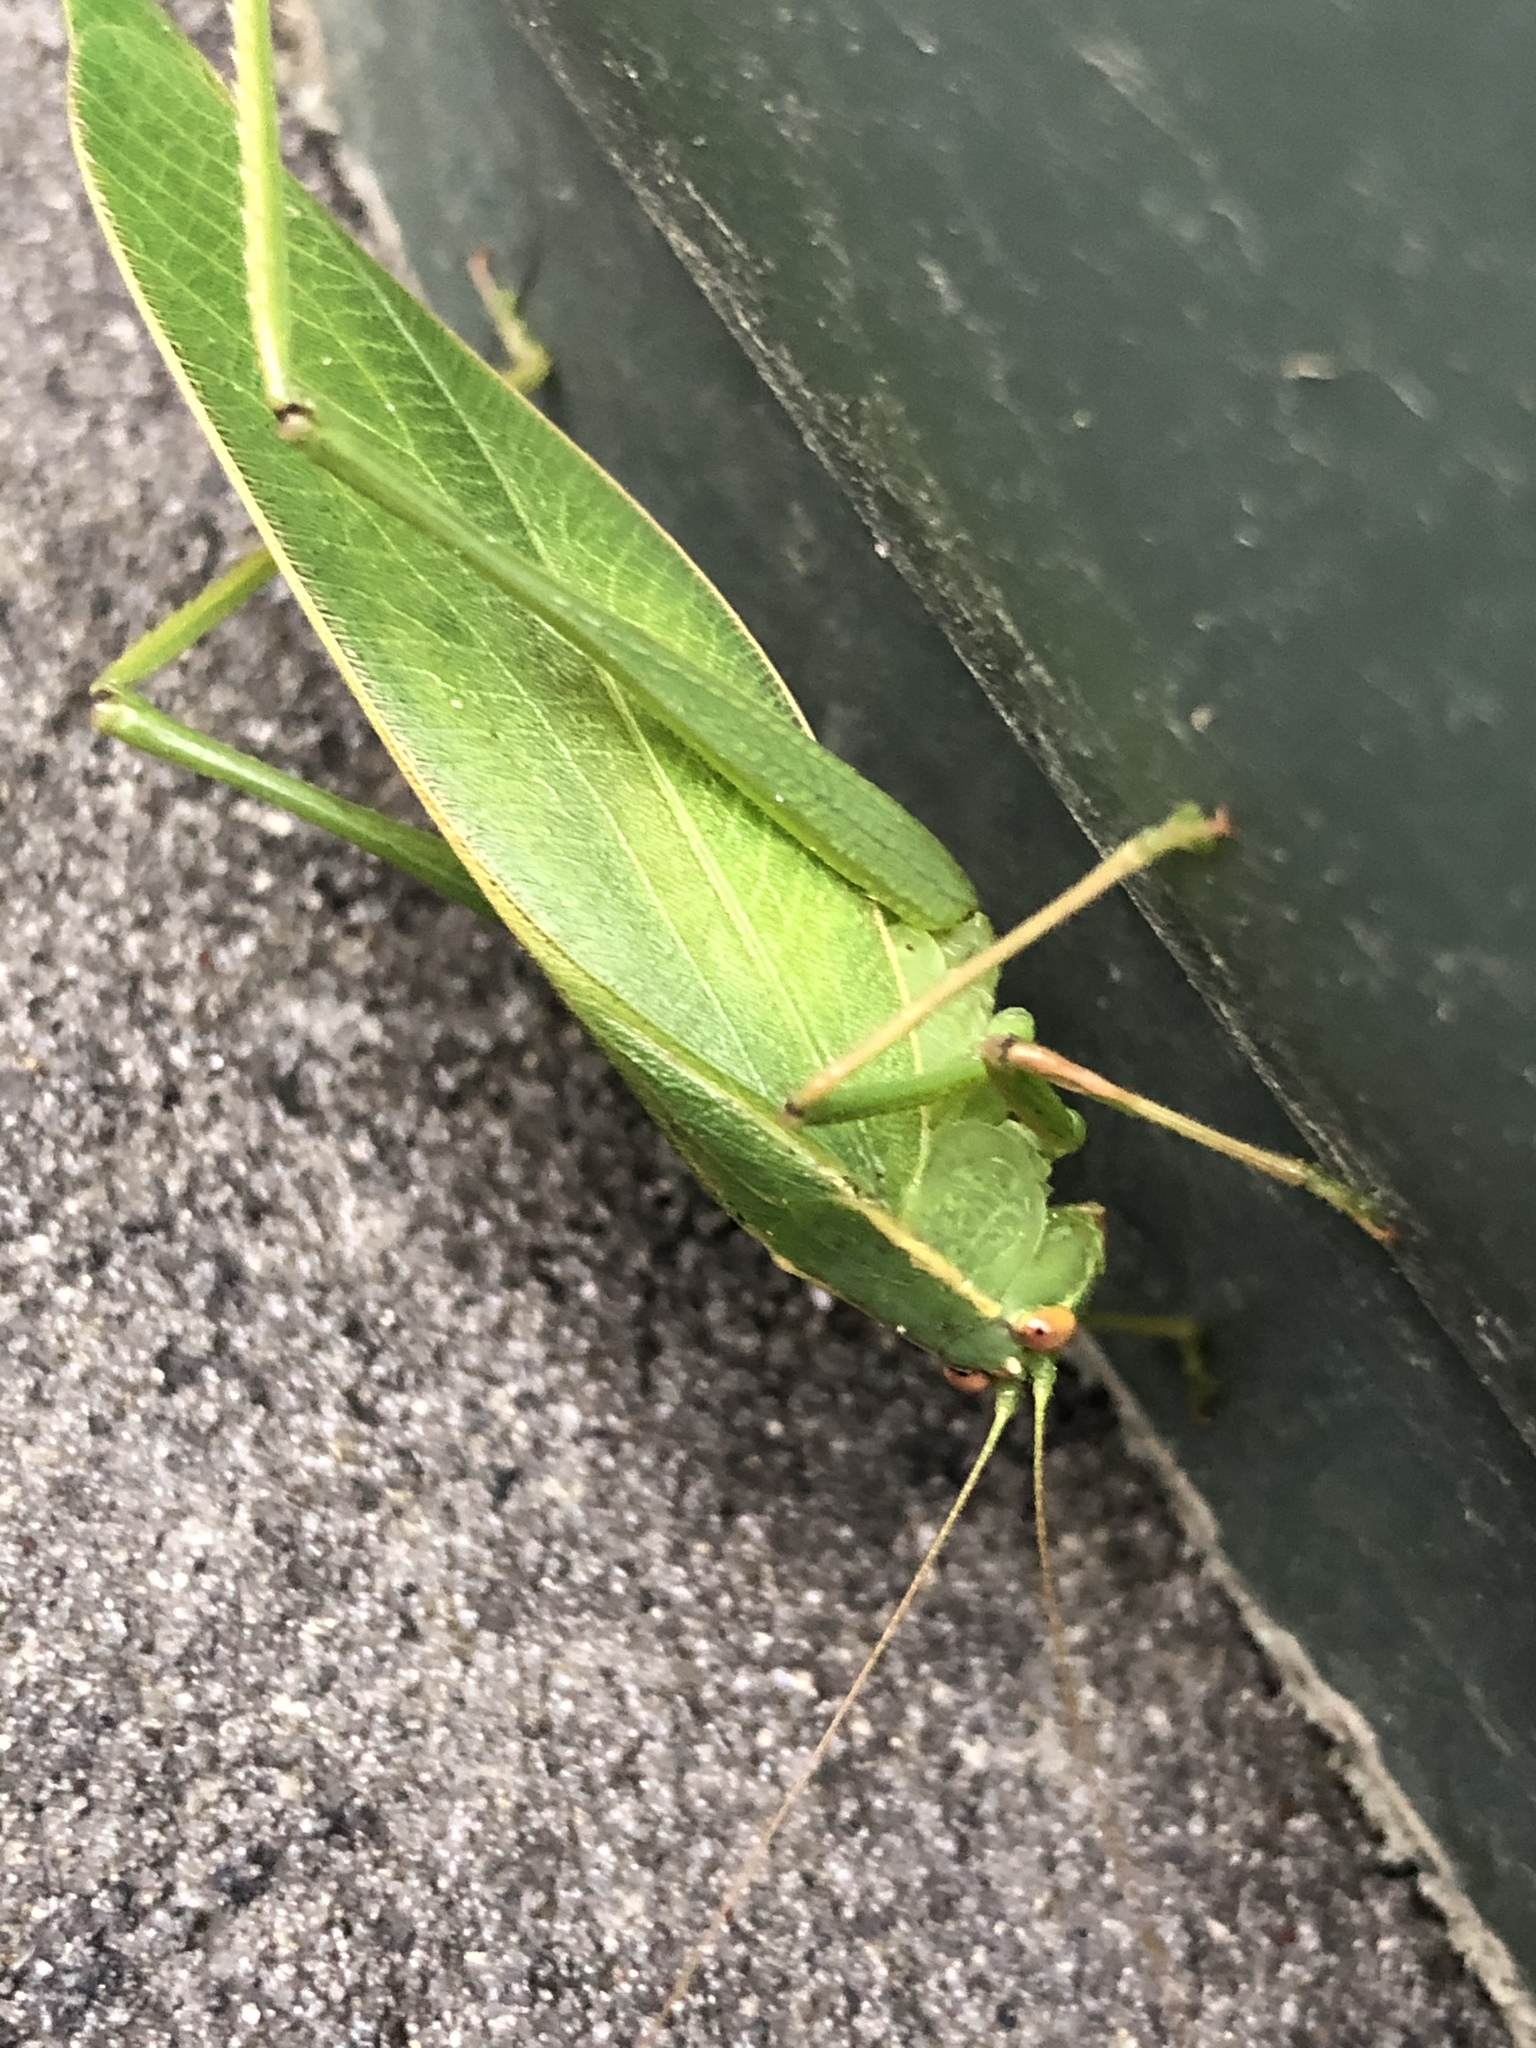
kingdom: Animalia
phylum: Arthropoda
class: Insecta
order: Orthoptera
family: Tettigoniidae
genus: Caedicia
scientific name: Caedicia simplex
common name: Common garden katydid
